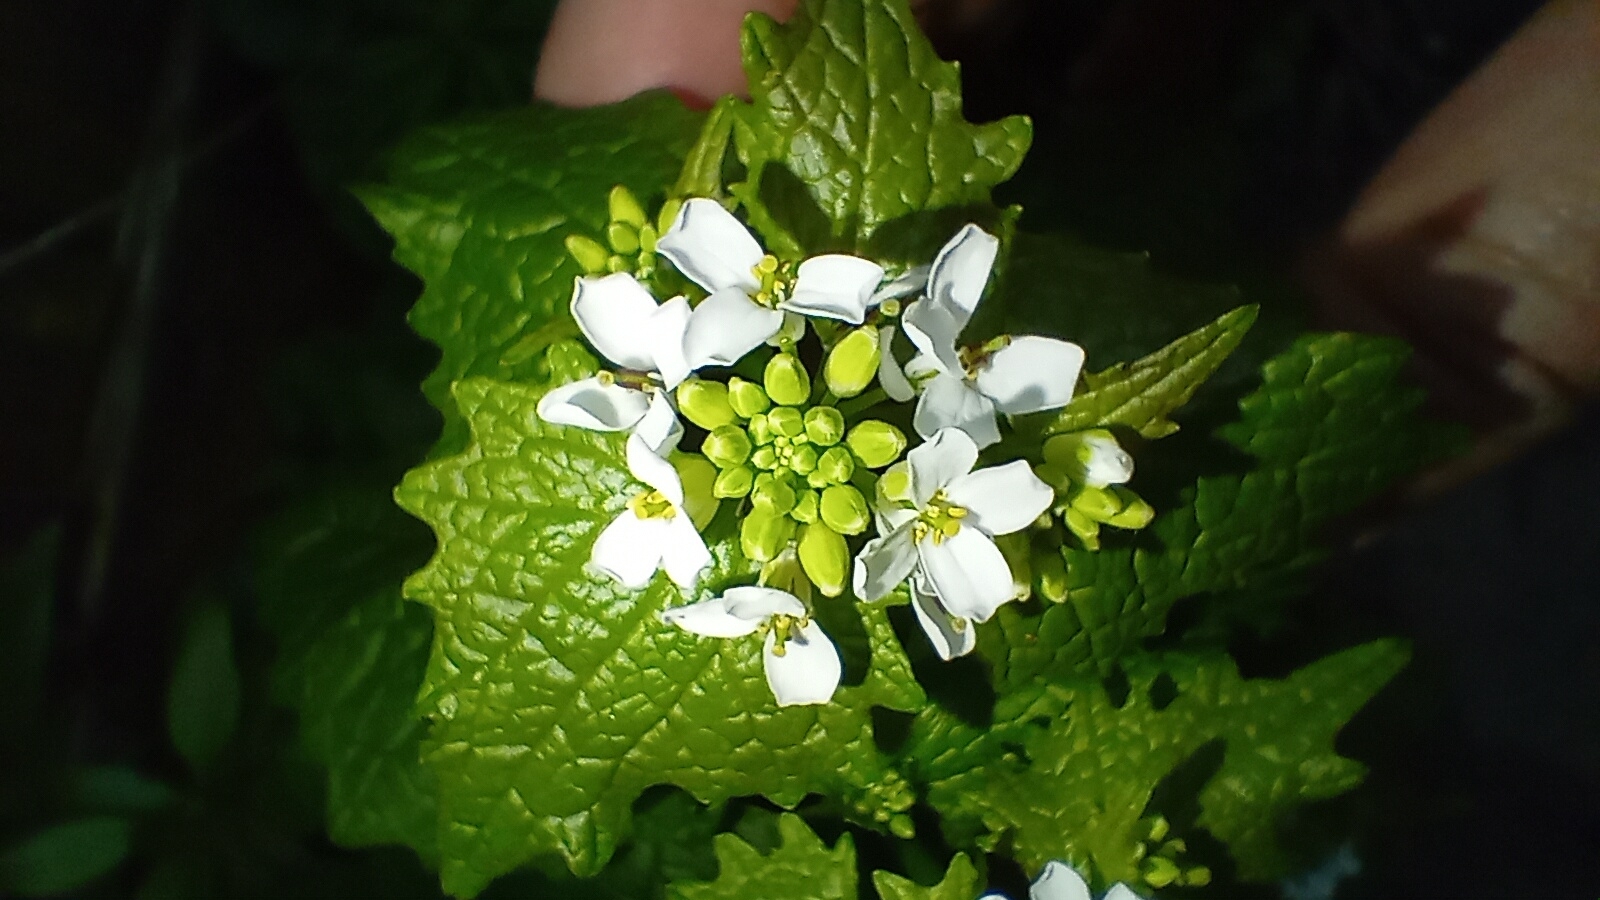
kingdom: Plantae
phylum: Tracheophyta
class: Magnoliopsida
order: Brassicales
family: Brassicaceae
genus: Alliaria
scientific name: Alliaria petiolata
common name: Garlic mustard
